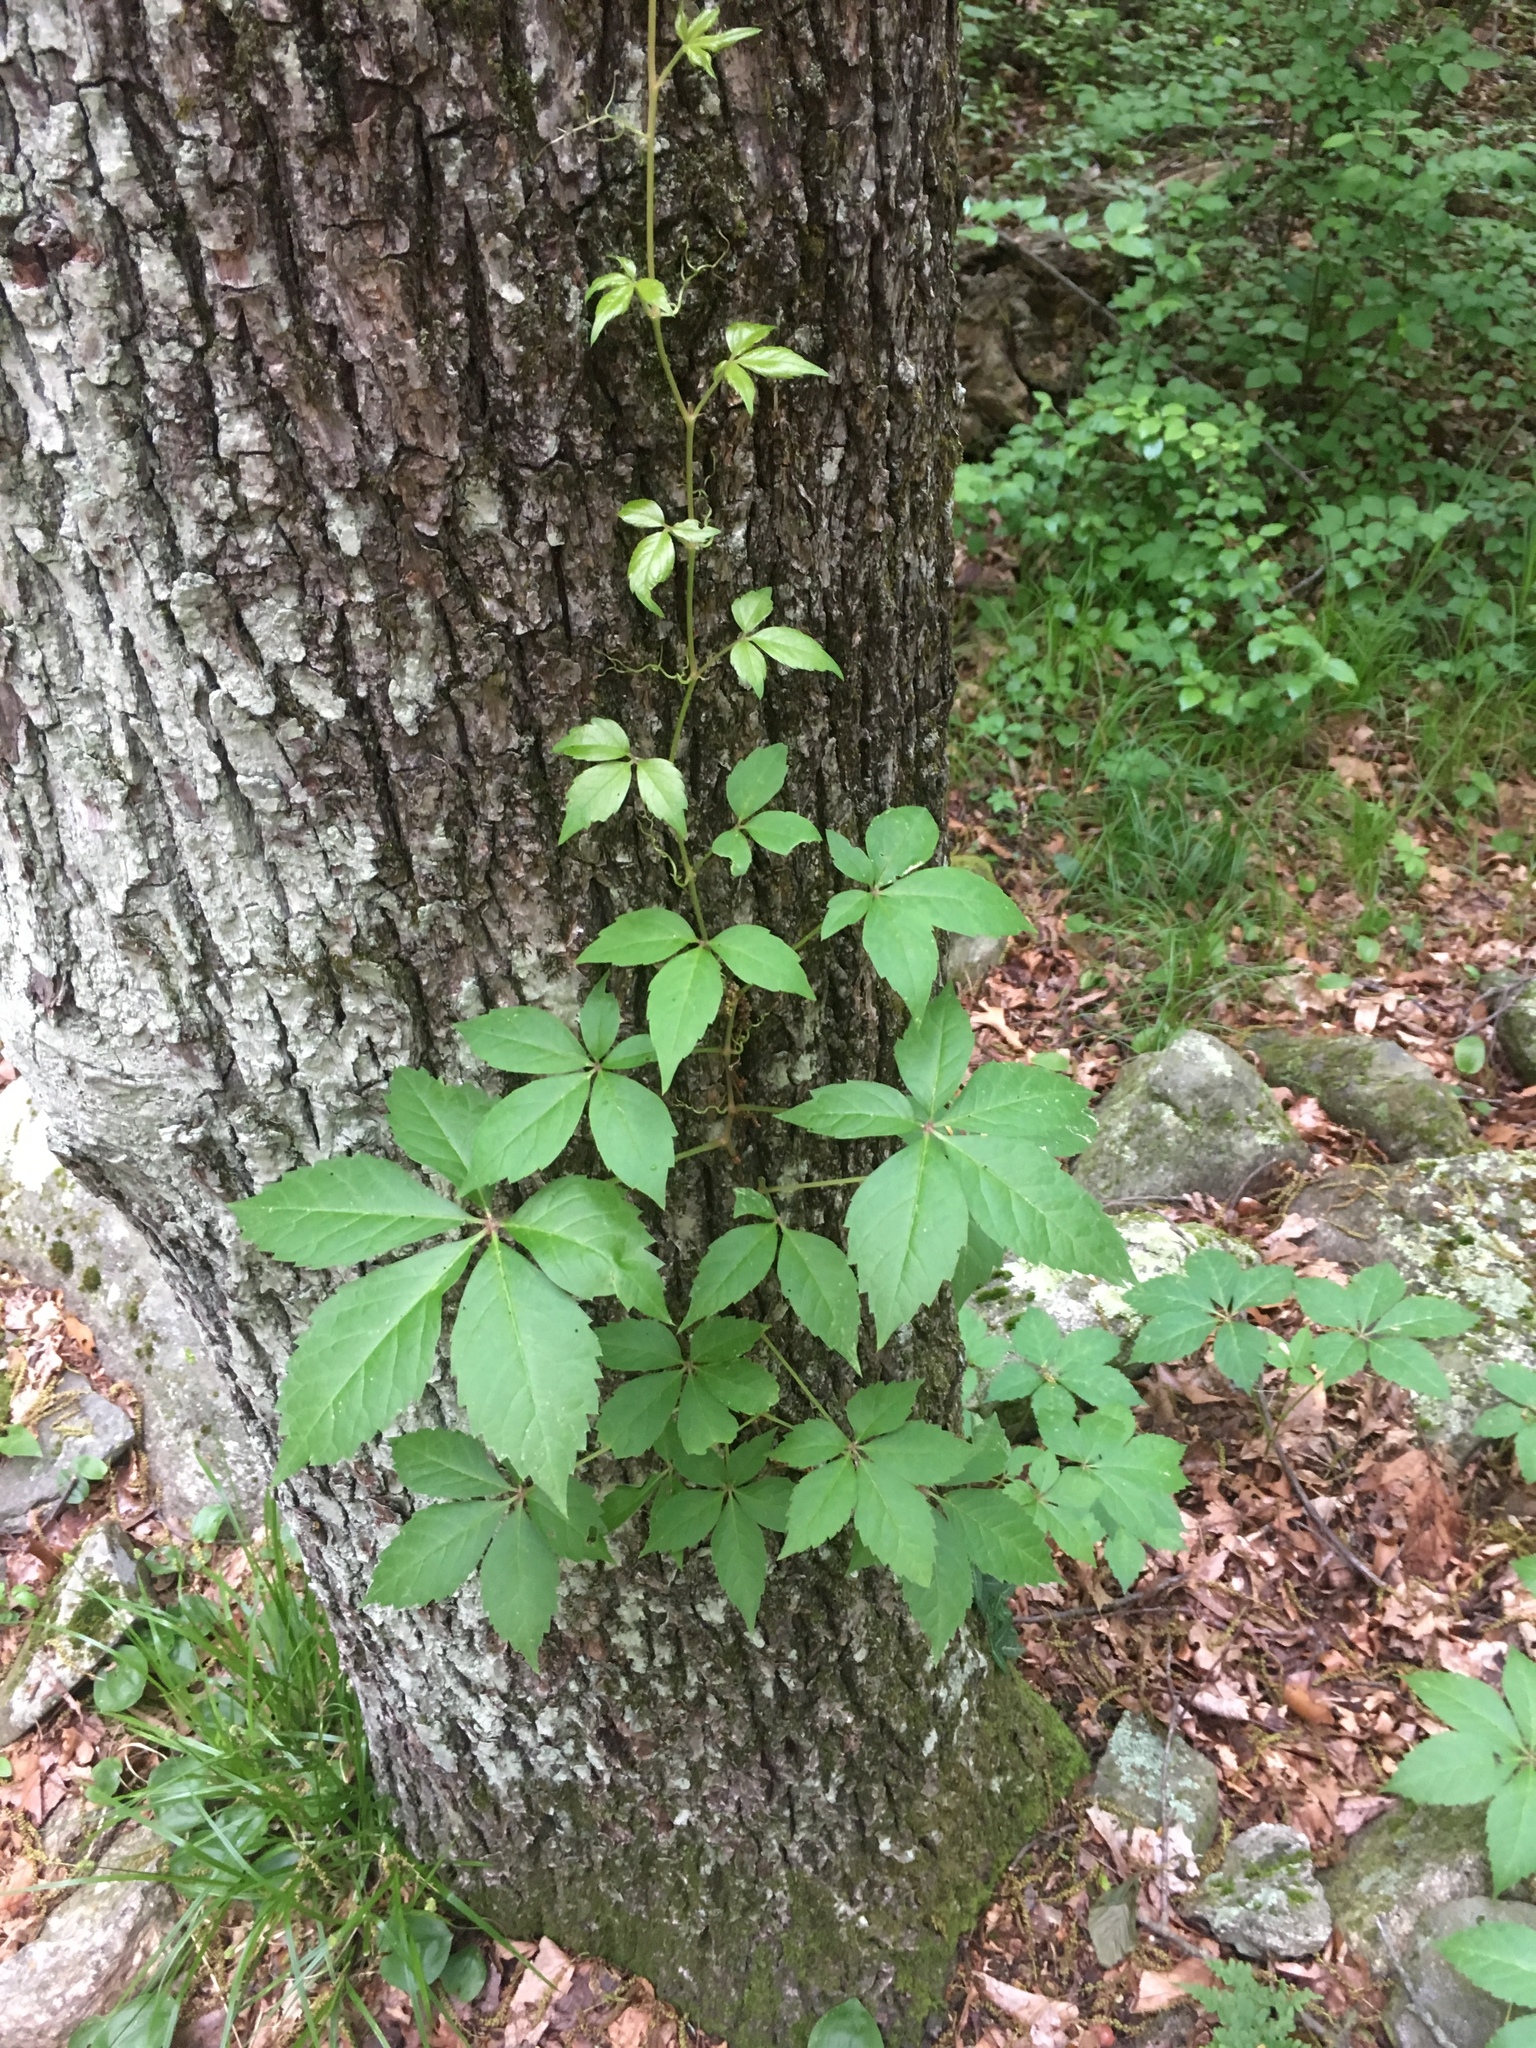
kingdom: Plantae
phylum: Tracheophyta
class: Magnoliopsida
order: Vitales
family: Vitaceae
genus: Parthenocissus
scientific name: Parthenocissus quinquefolia
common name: Virginia-creeper
